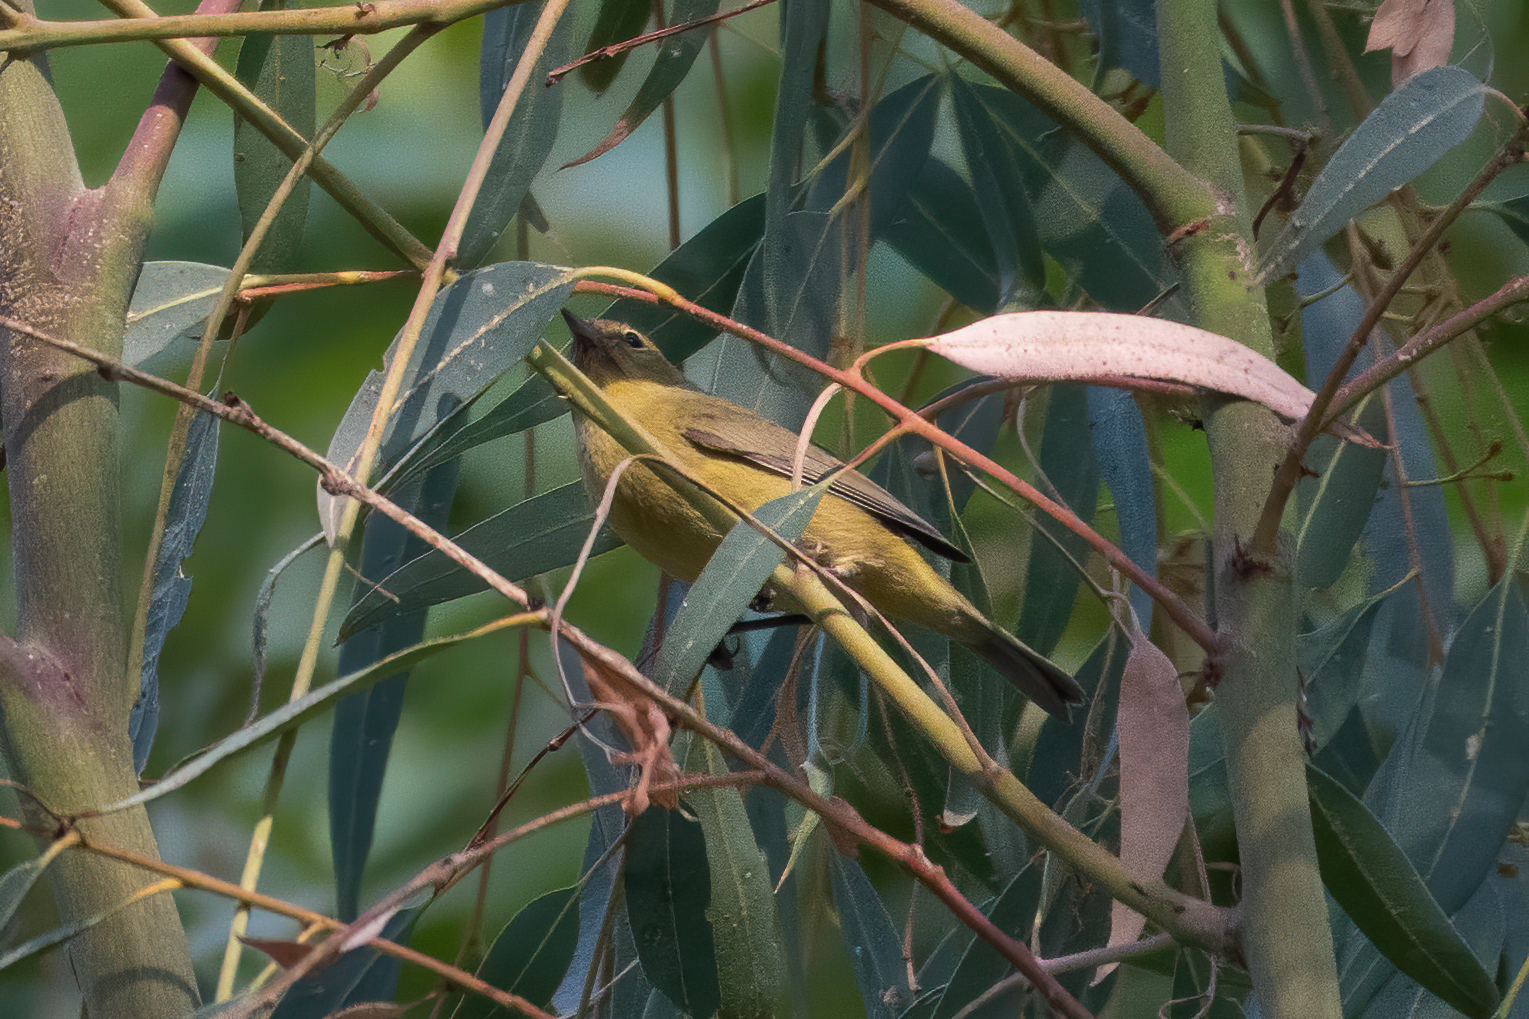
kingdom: Animalia
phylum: Chordata
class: Aves
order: Passeriformes
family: Parulidae
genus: Leiothlypis
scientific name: Leiothlypis celata
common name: Orange-crowned warbler
